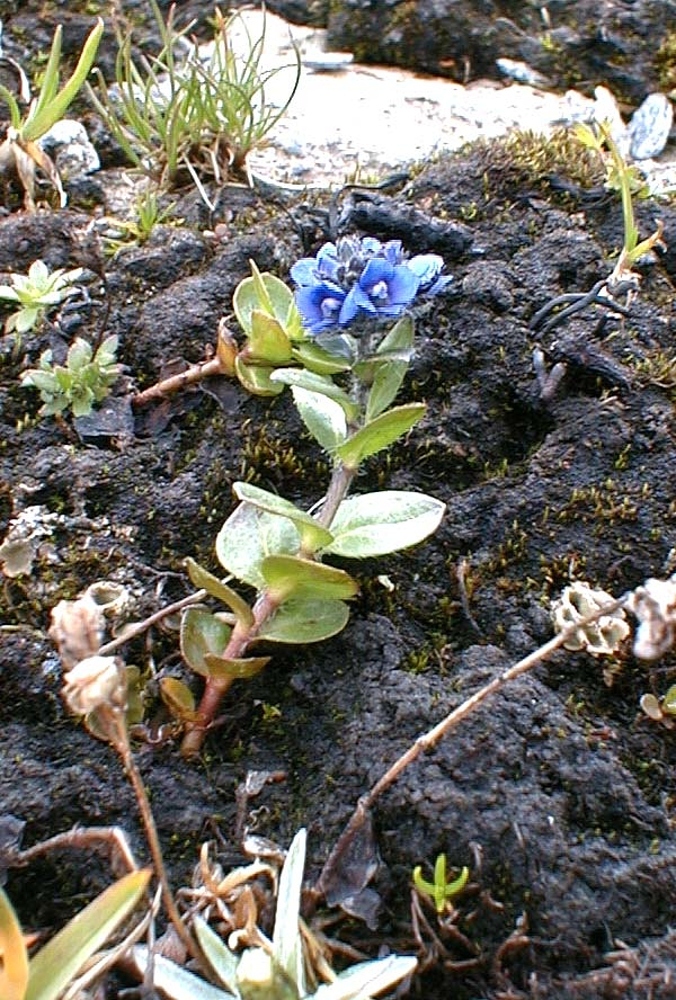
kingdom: Plantae
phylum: Tracheophyta
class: Magnoliopsida
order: Lamiales
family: Plantaginaceae
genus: Veronica
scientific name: Veronica alpina
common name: Alpine speedwell
